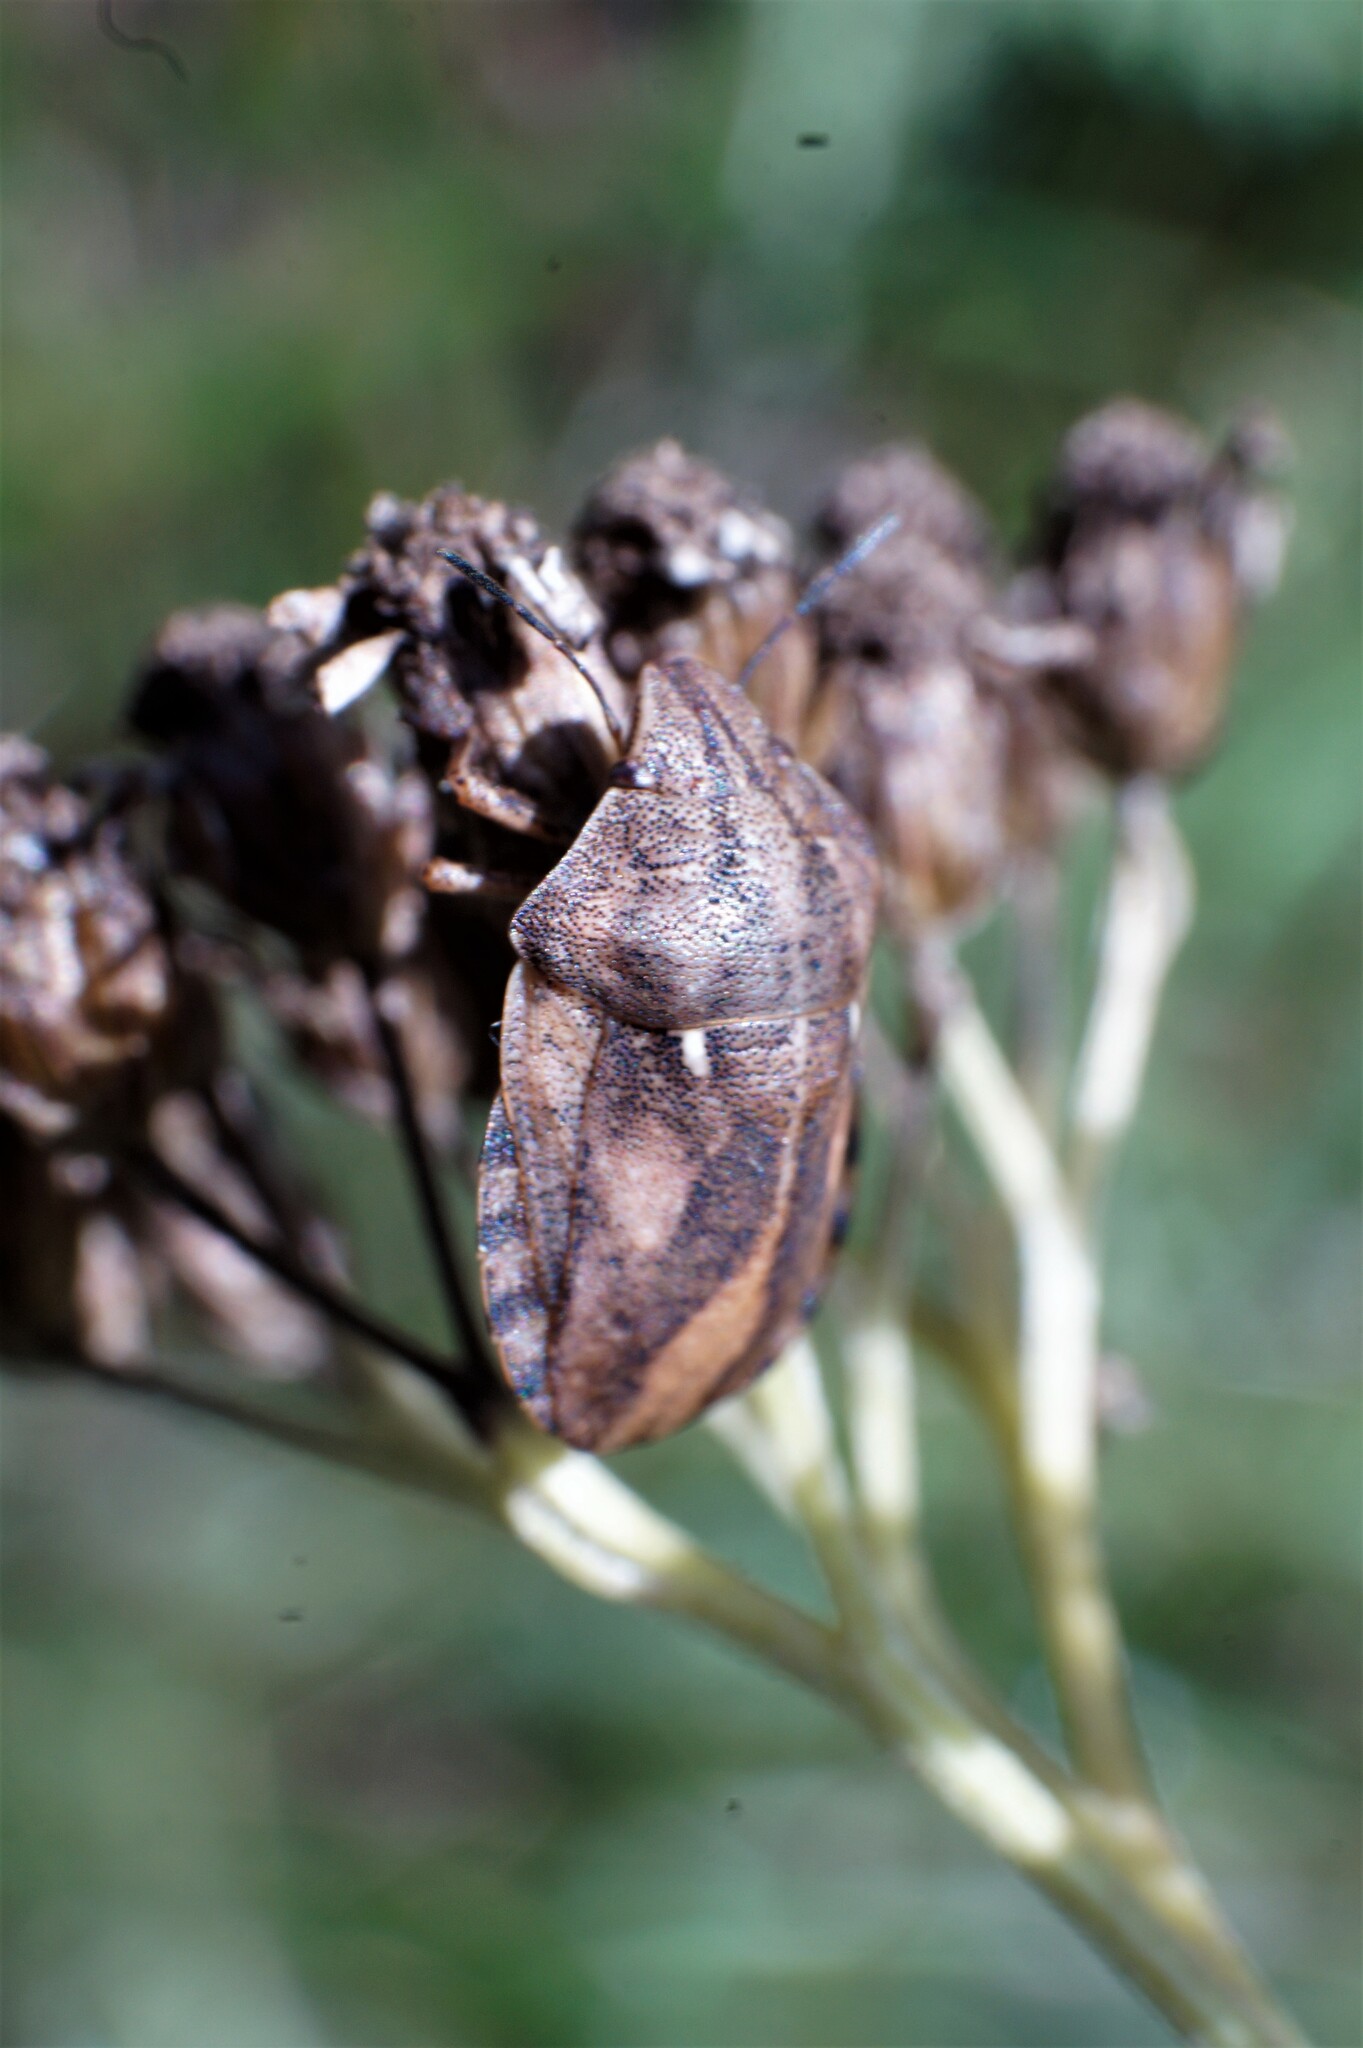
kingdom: Animalia
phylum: Arthropoda
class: Insecta
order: Hemiptera
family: Scutelleridae
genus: Eurygaster
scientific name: Eurygaster testudinaria
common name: Tortoise bug
